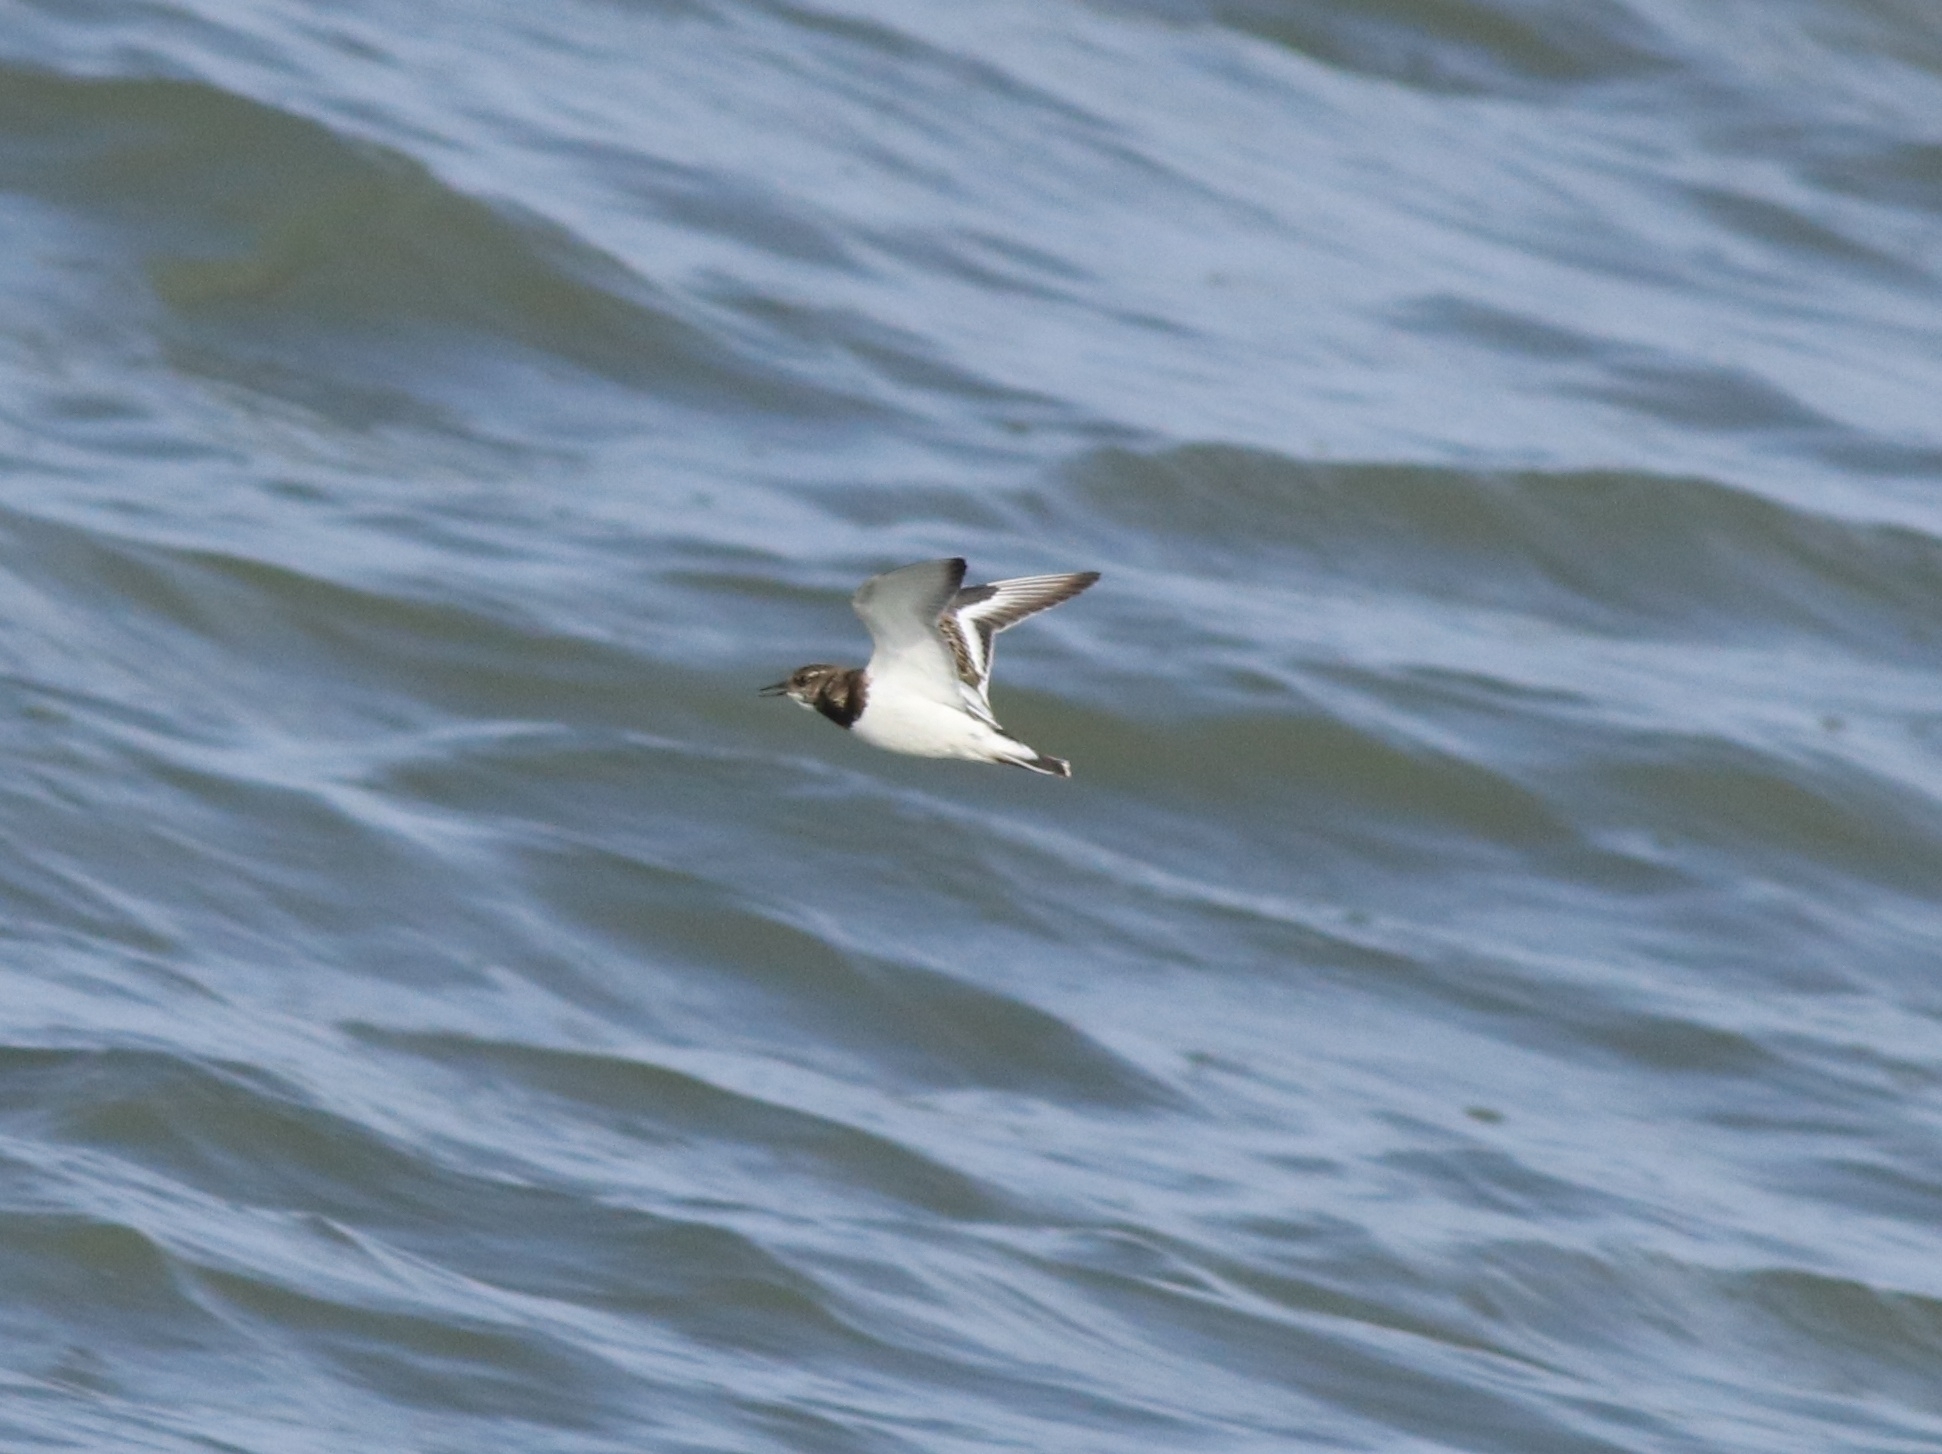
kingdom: Animalia
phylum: Chordata
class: Aves
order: Charadriiformes
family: Scolopacidae
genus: Arenaria
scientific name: Arenaria interpres
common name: Ruddy turnstone
